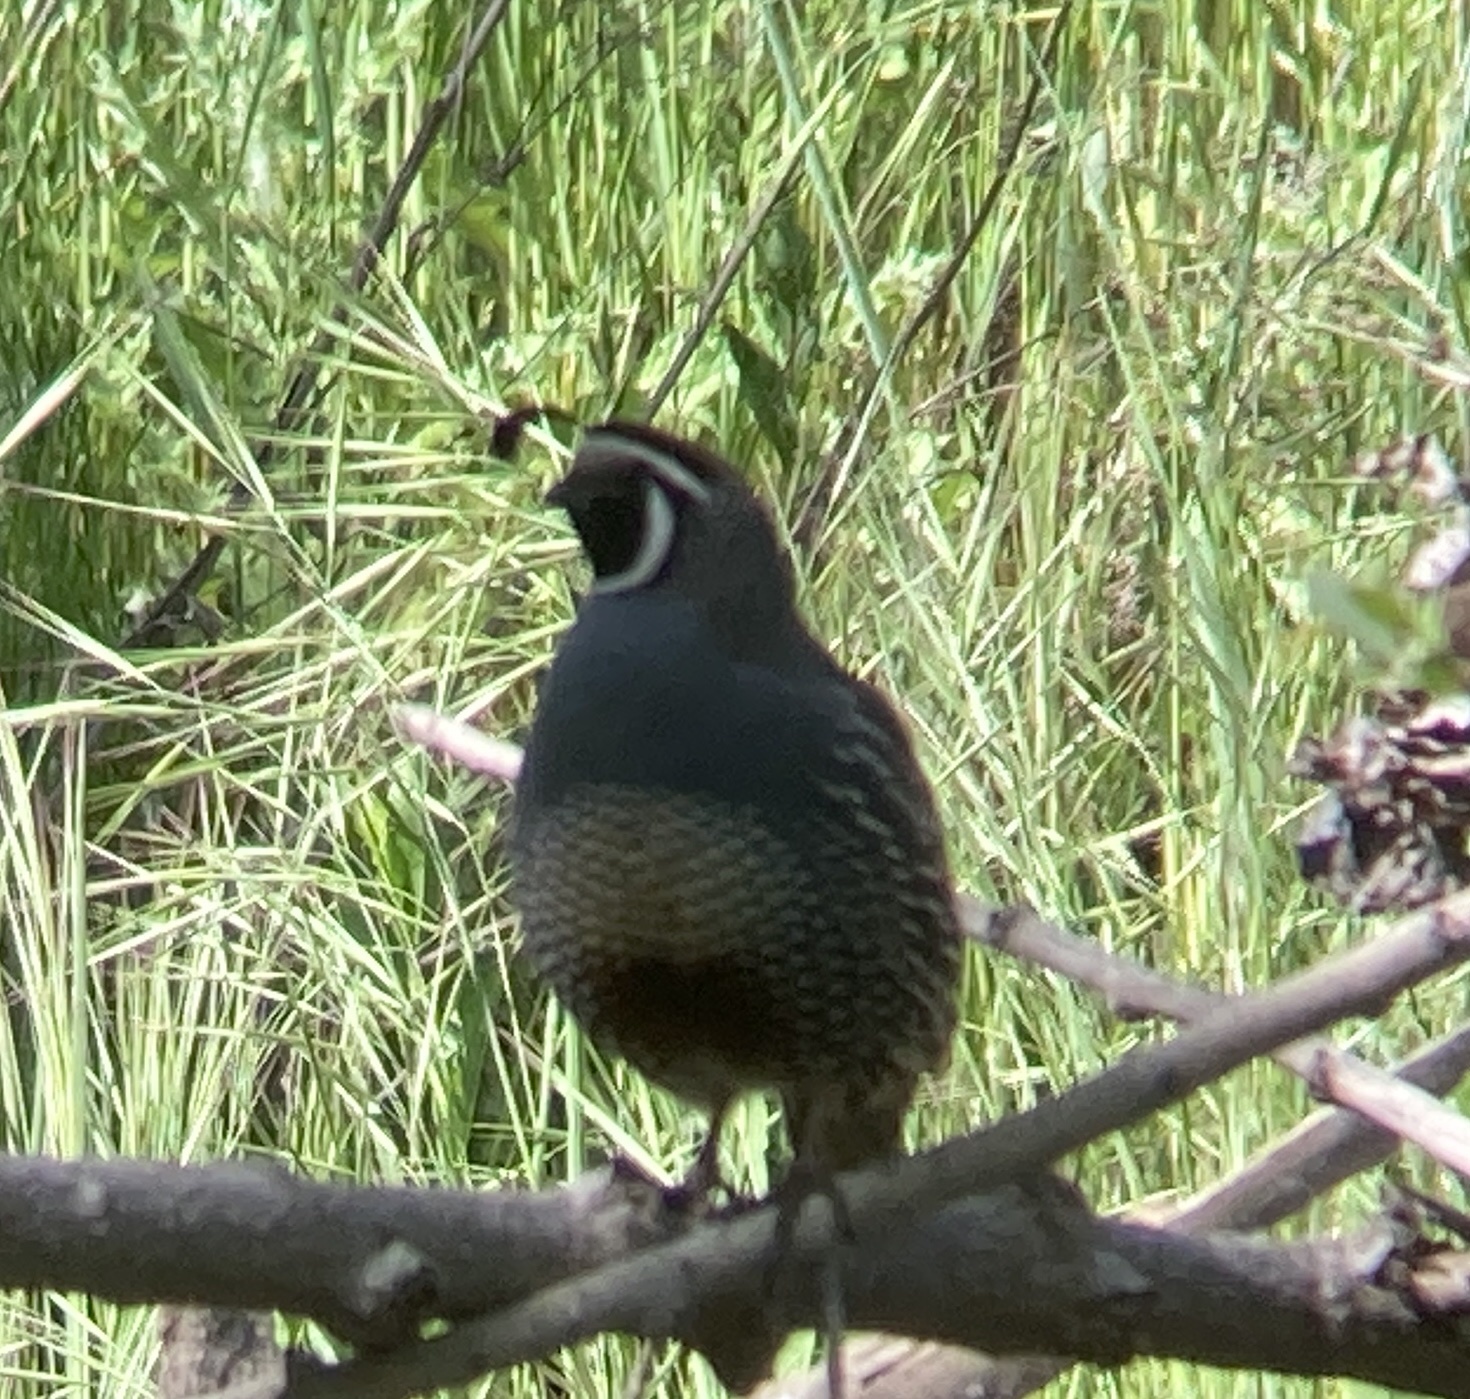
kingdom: Animalia
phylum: Chordata
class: Aves
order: Galliformes
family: Odontophoridae
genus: Callipepla
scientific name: Callipepla californica
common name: California quail
